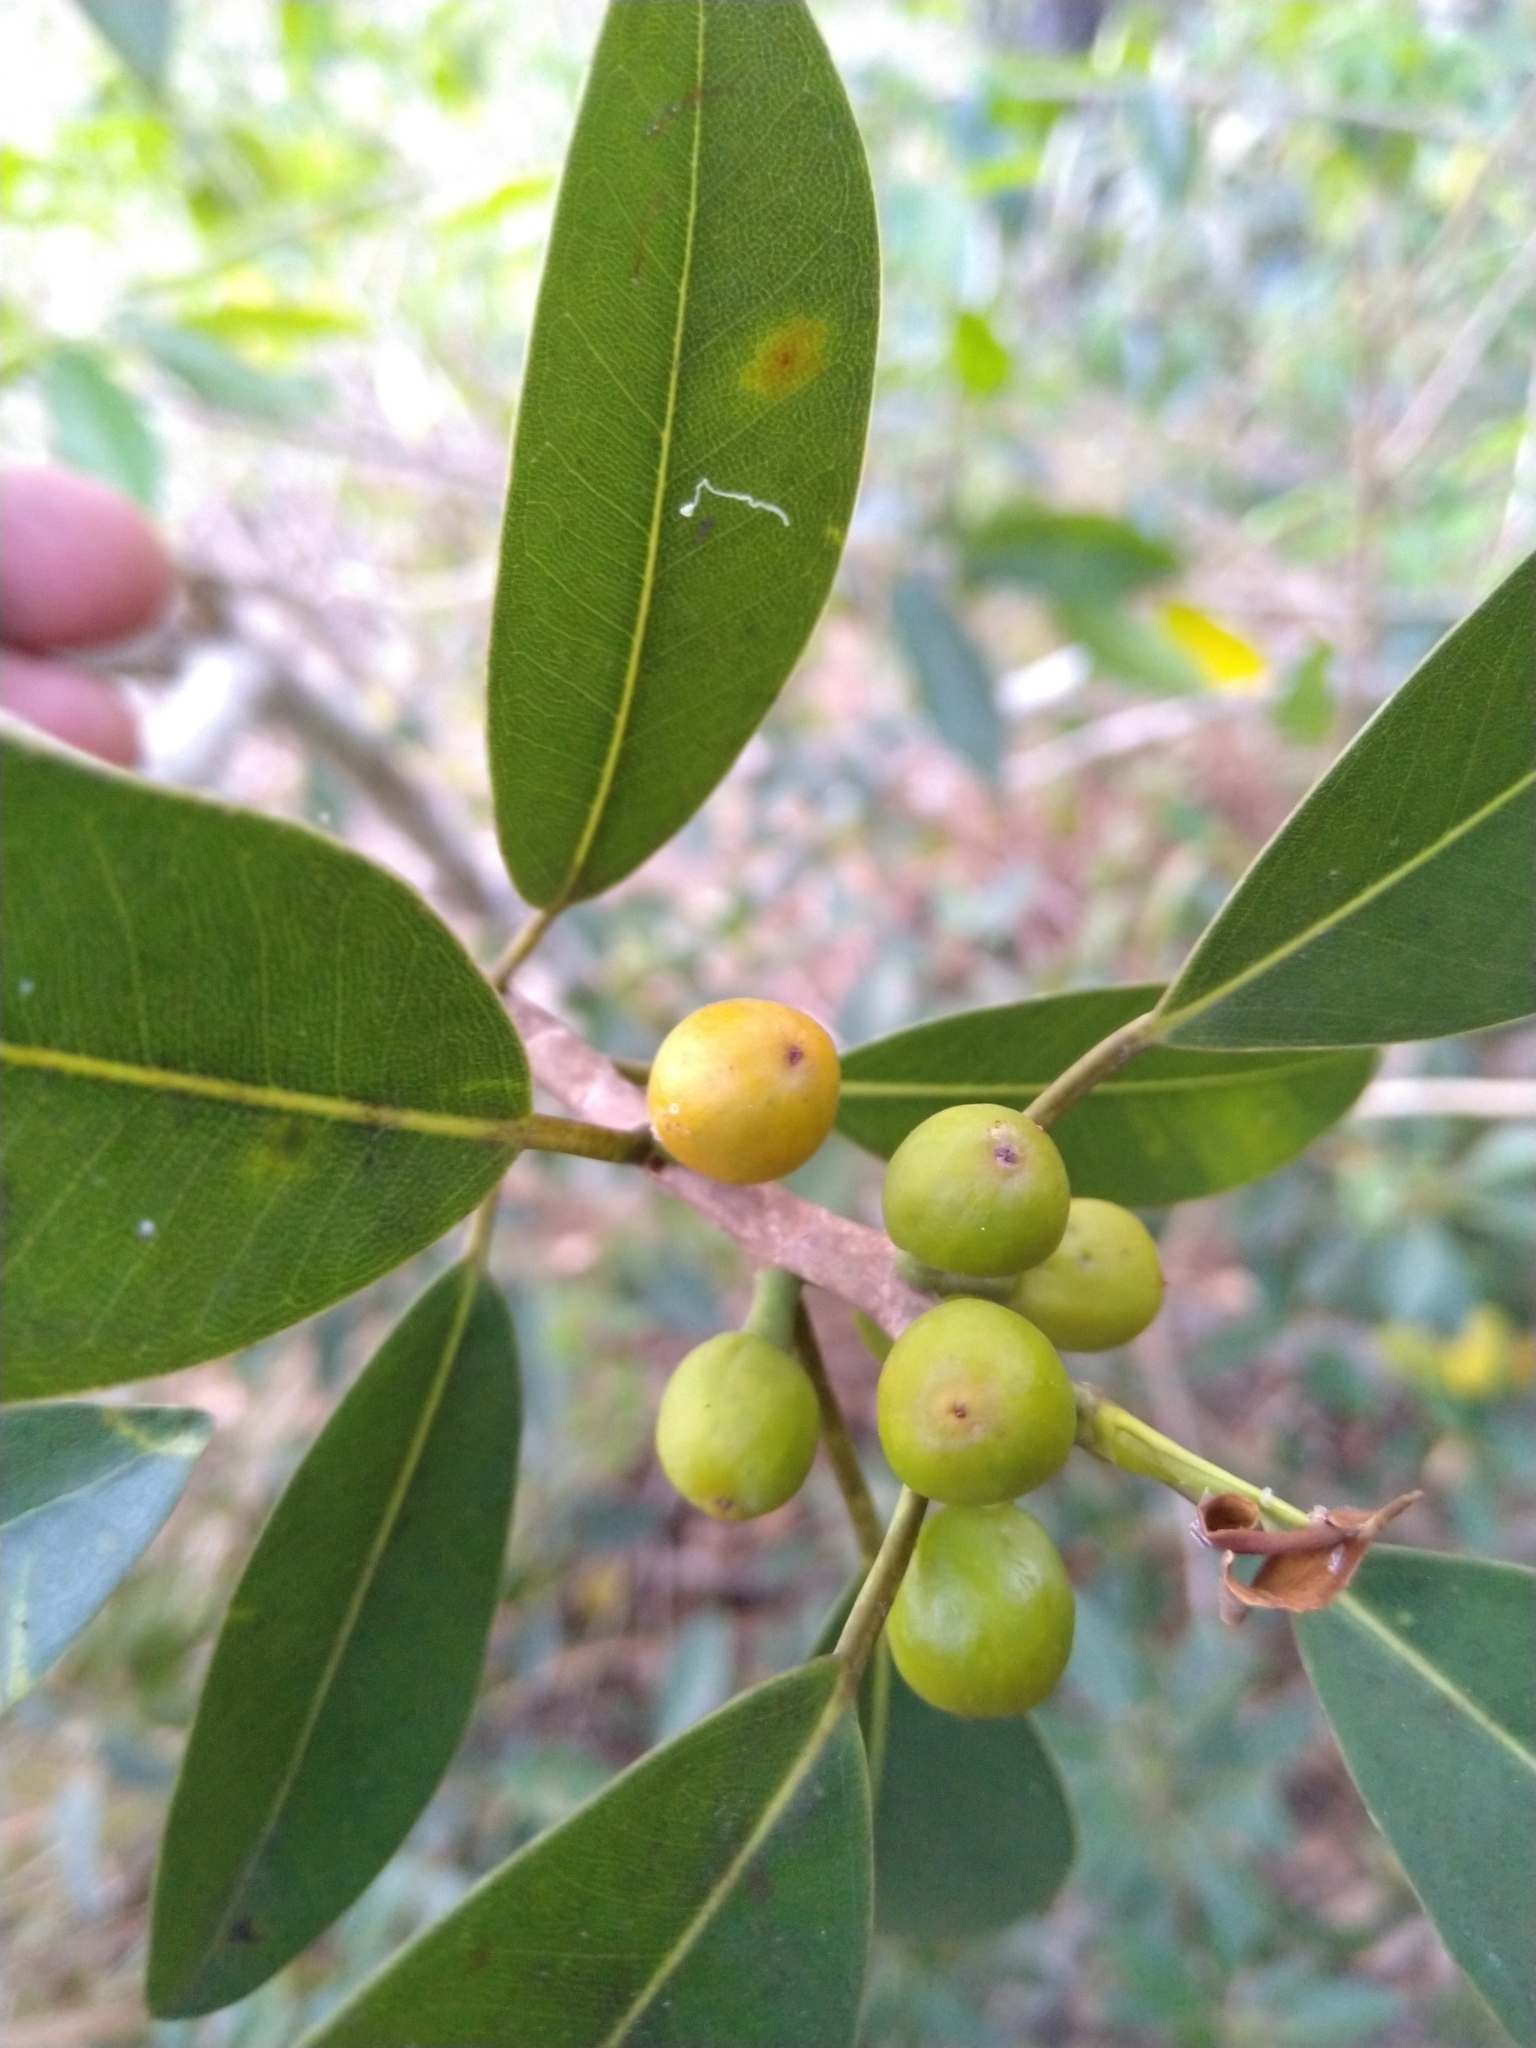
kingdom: Plantae
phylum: Tracheophyta
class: Magnoliopsida
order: Rosales
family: Moraceae
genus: Ficus
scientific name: Ficus obliqua
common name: Small-leaf fig
